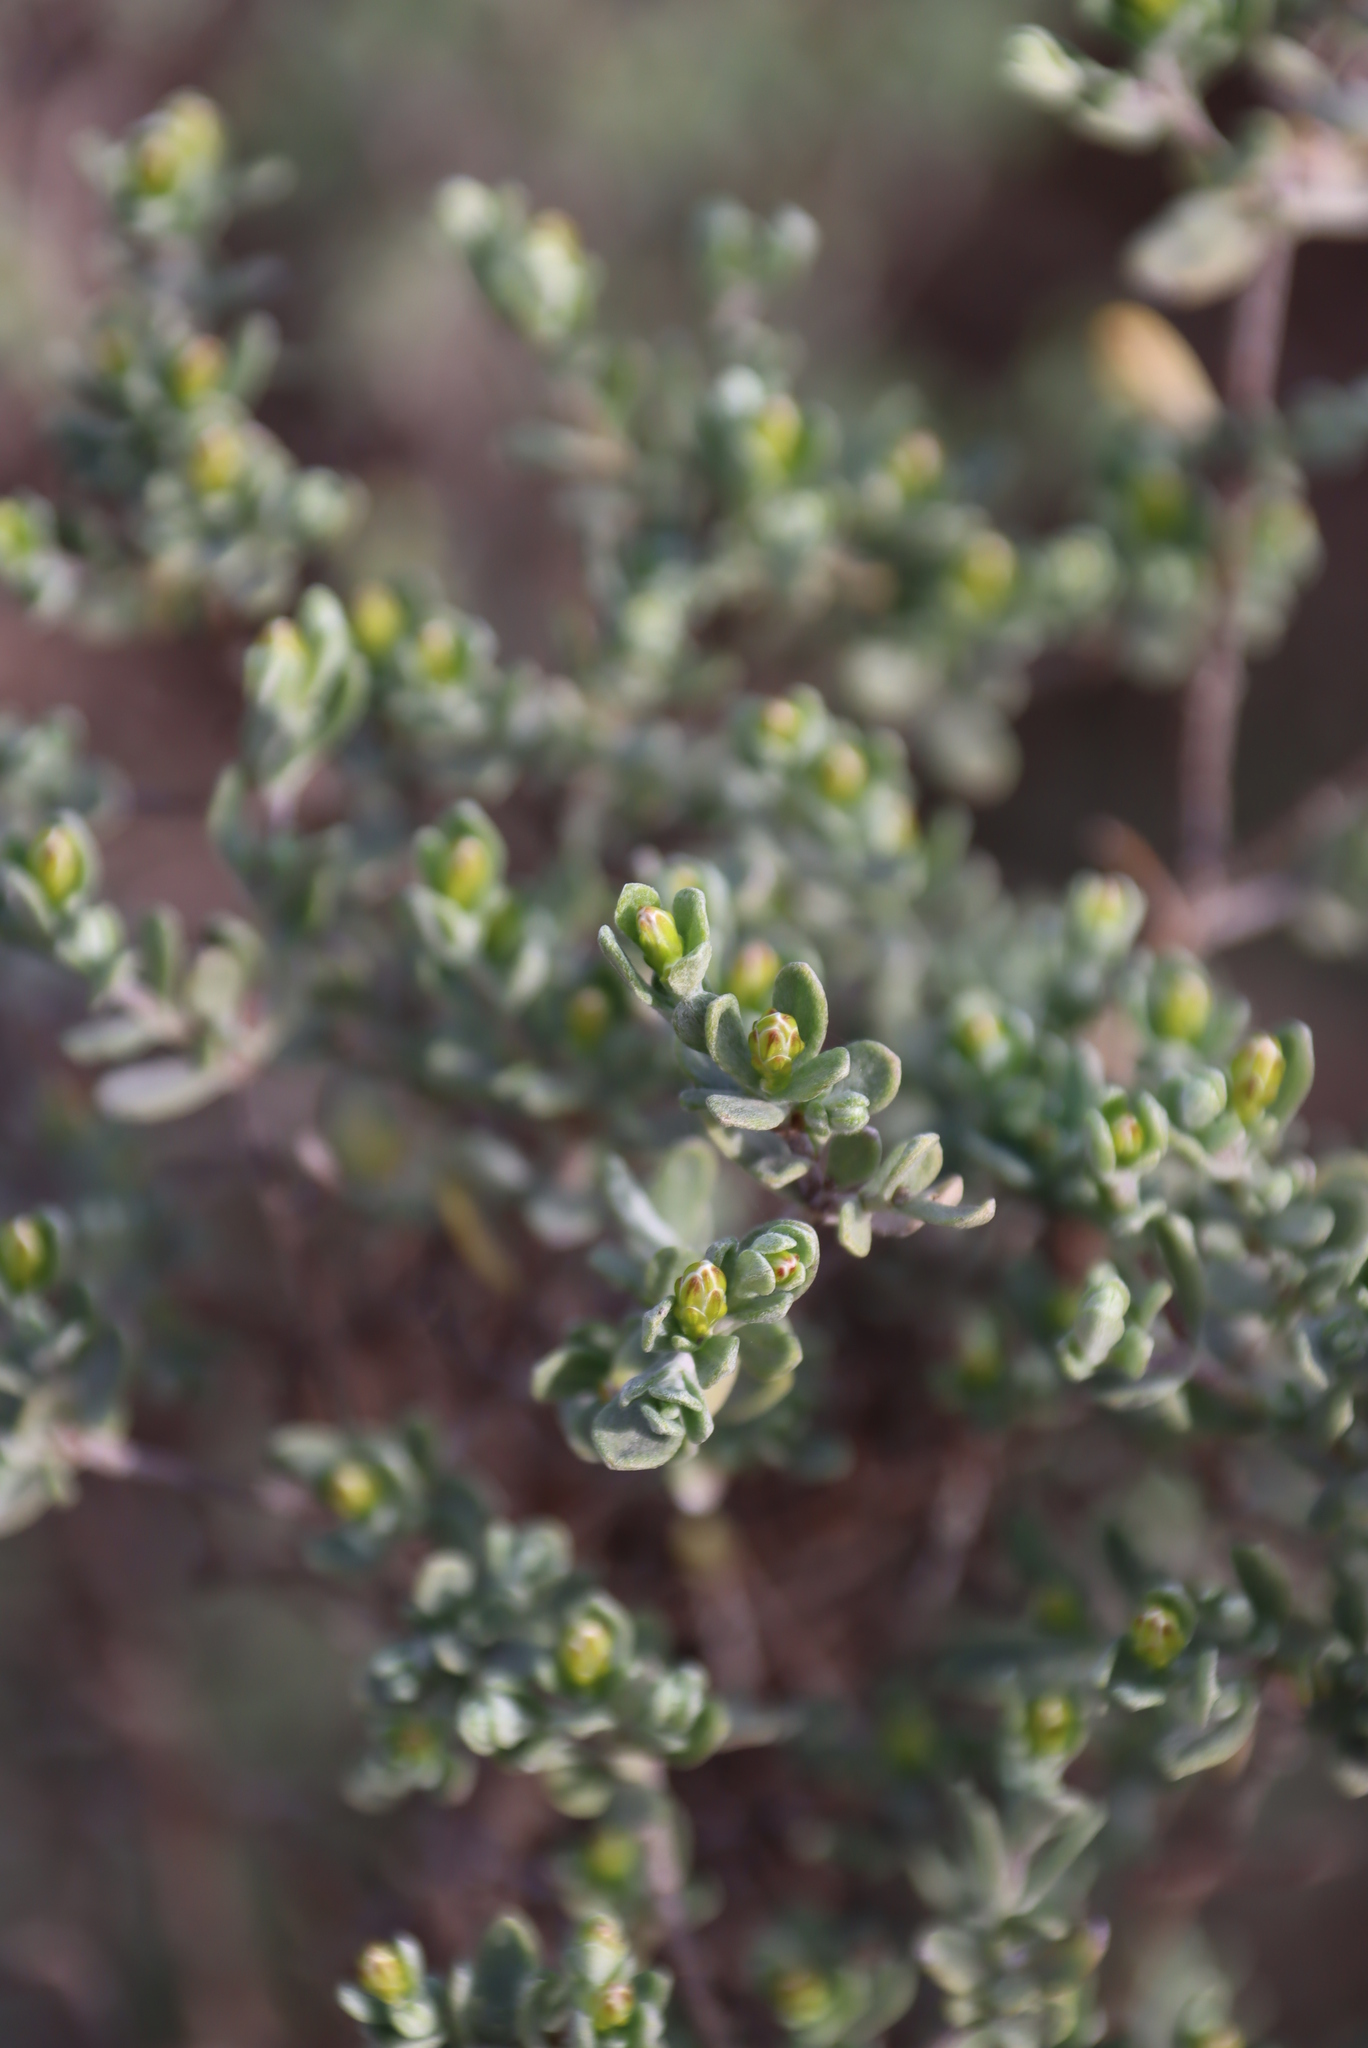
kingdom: Plantae
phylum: Tracheophyta
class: Magnoliopsida
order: Asterales
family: Asteraceae
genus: Pteronia
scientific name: Pteronia incana
